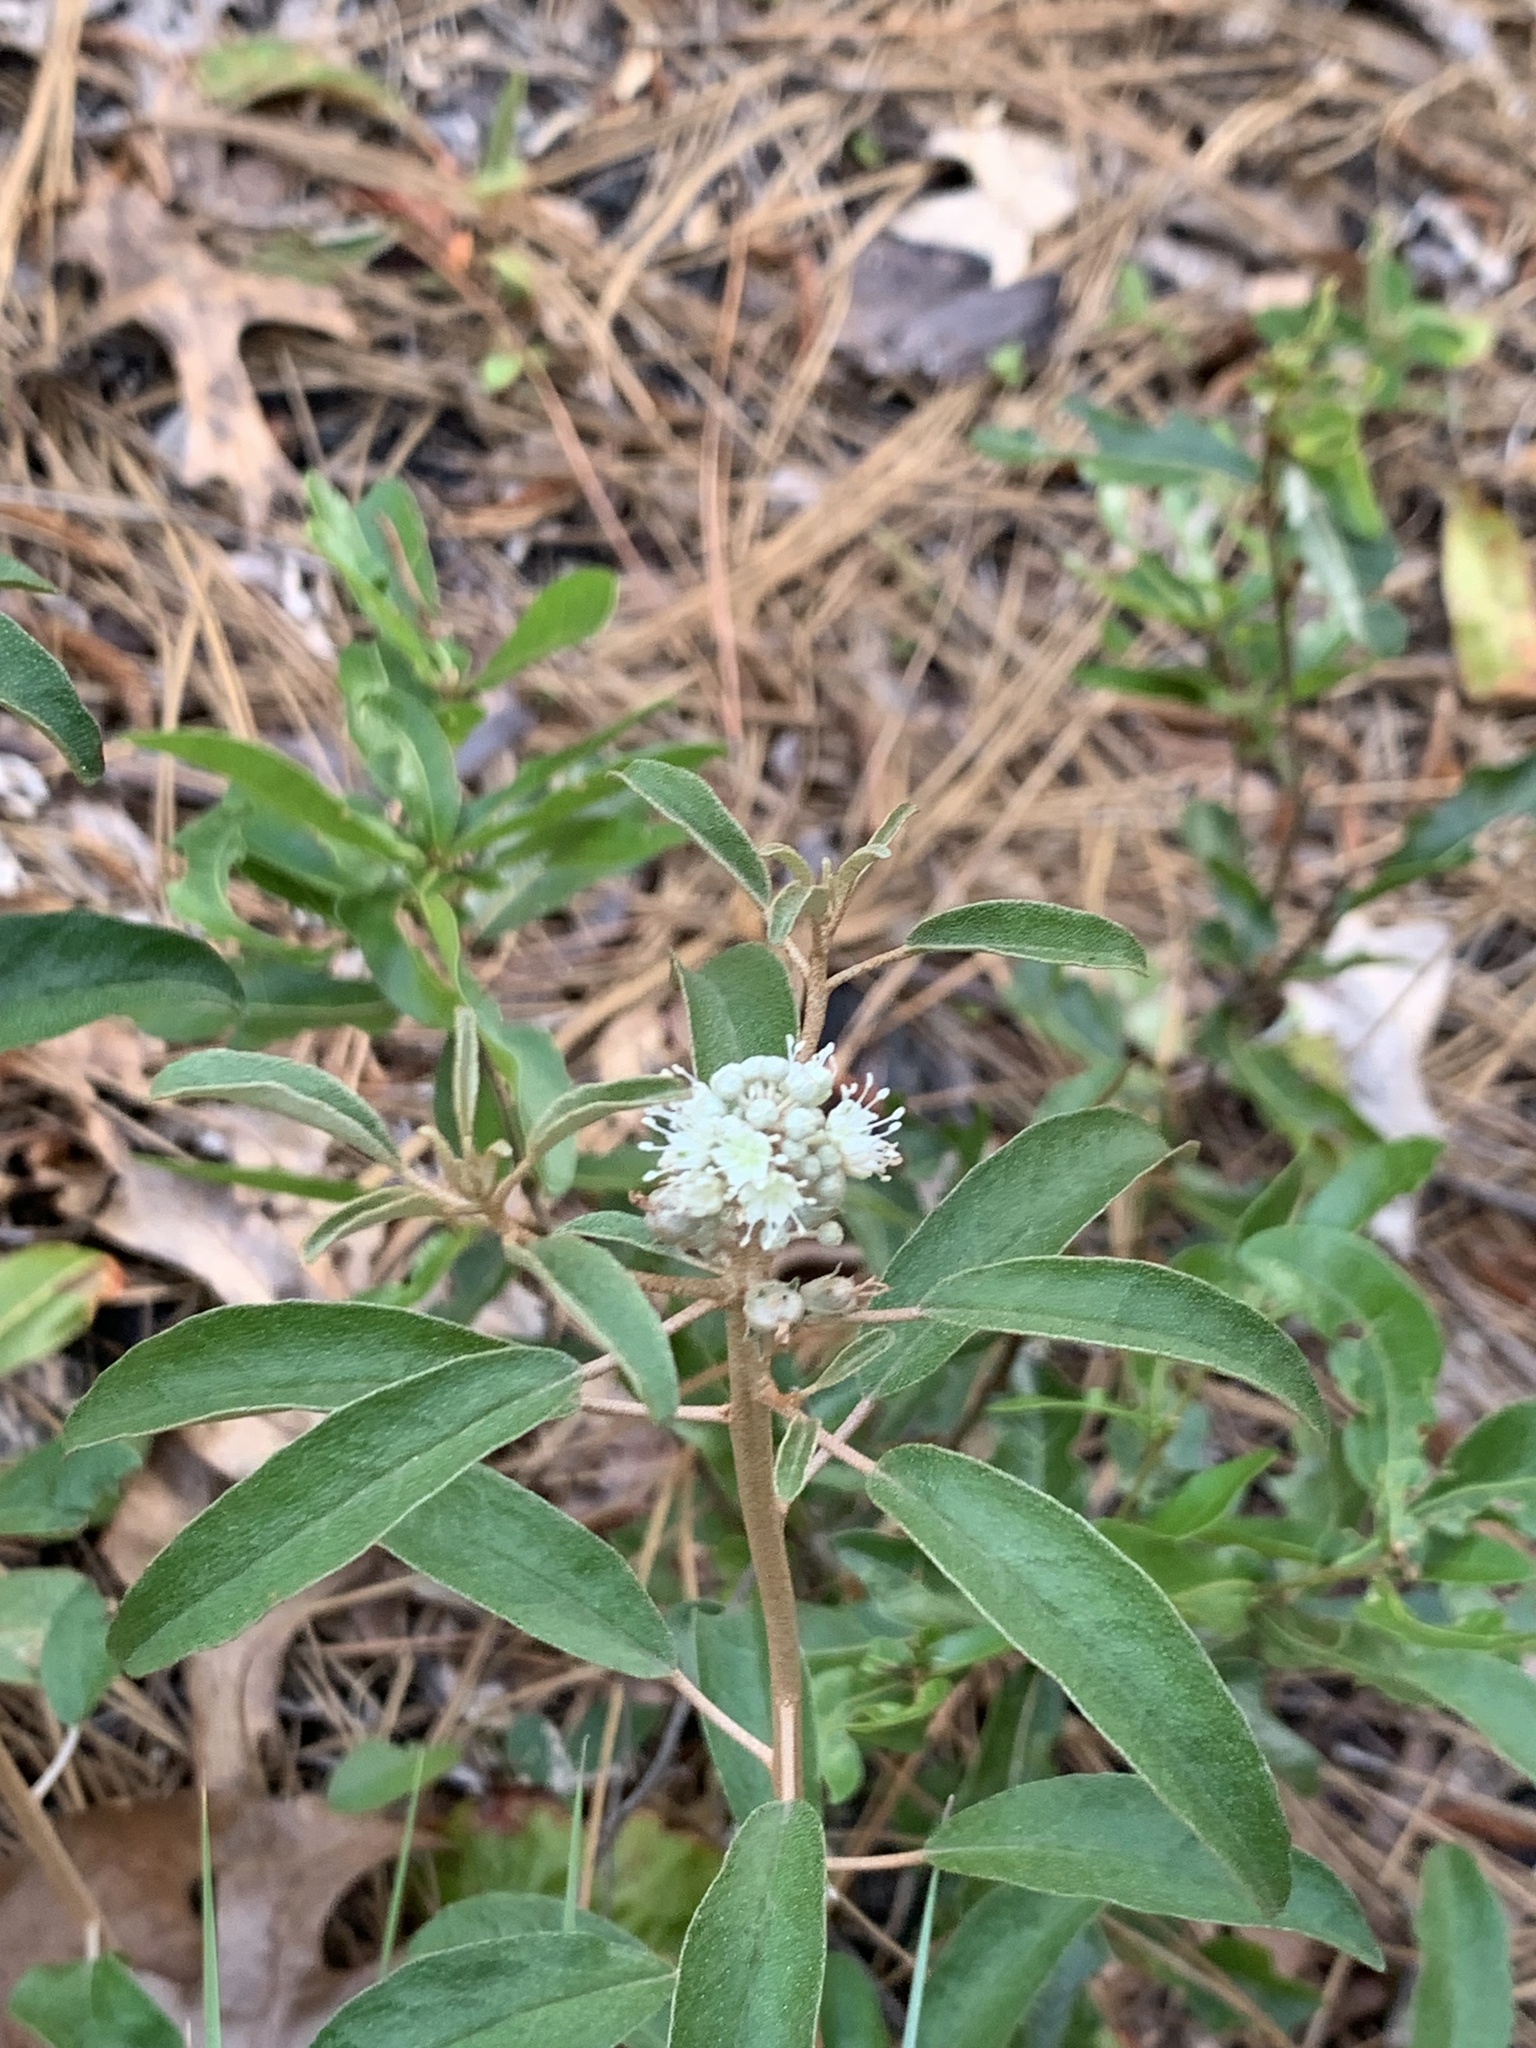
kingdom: Plantae
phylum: Tracheophyta
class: Magnoliopsida
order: Malpighiales
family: Euphorbiaceae
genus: Croton
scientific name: Croton argyranthemus
